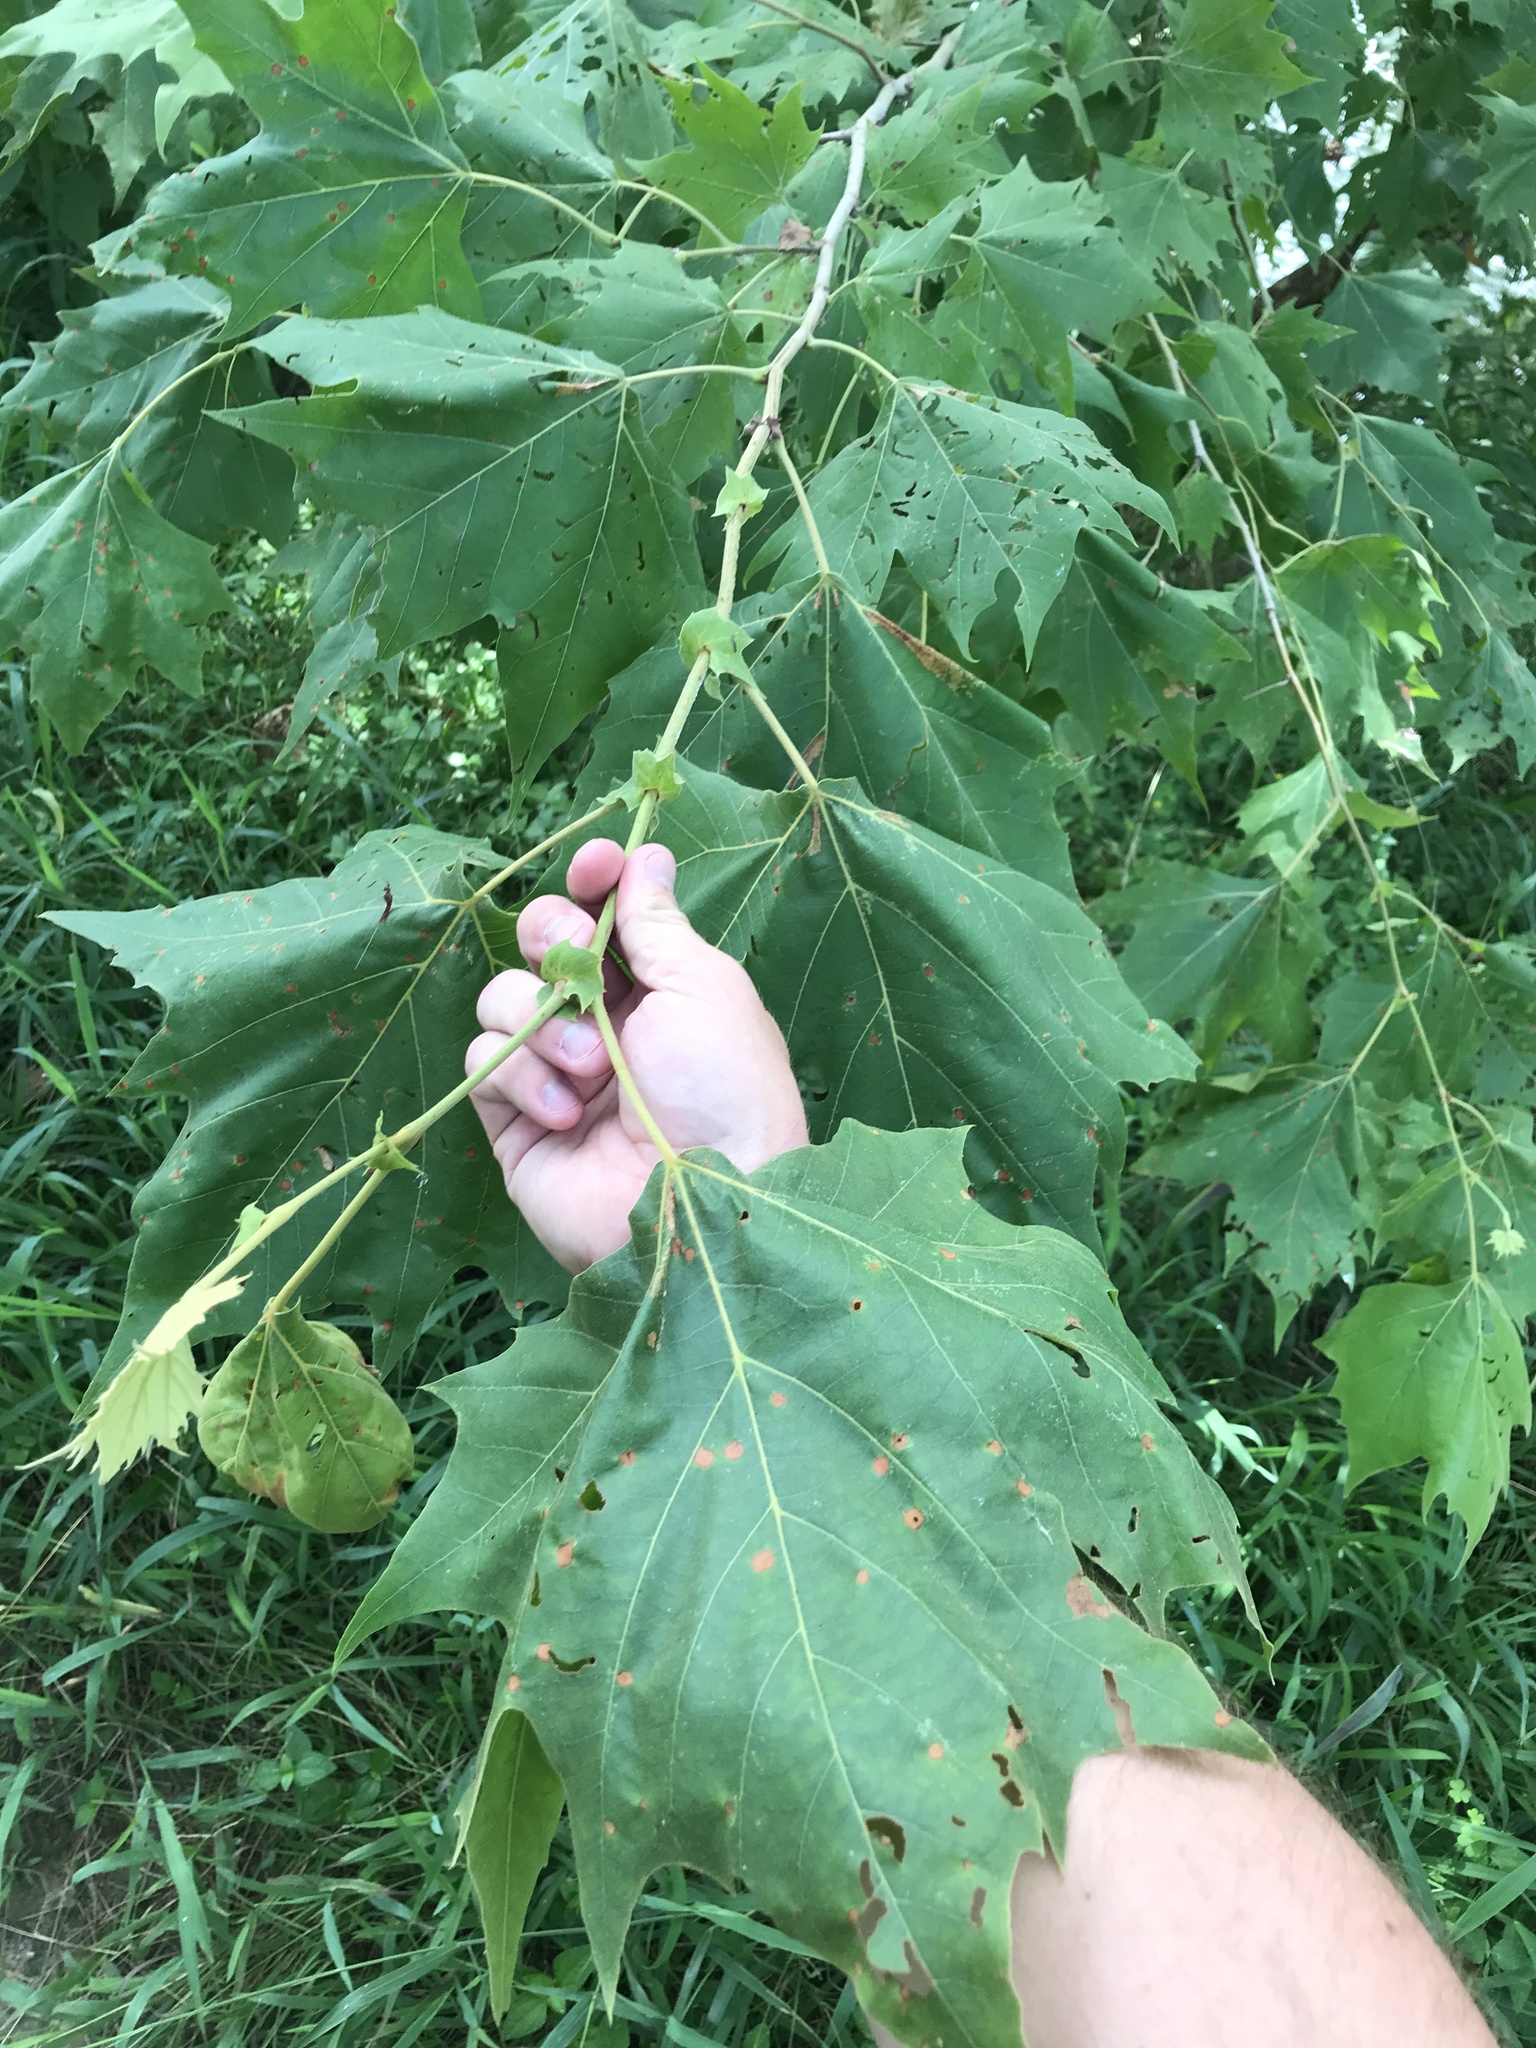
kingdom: Plantae
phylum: Tracheophyta
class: Magnoliopsida
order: Proteales
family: Platanaceae
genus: Platanus
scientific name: Platanus occidentalis
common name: American sycamore
